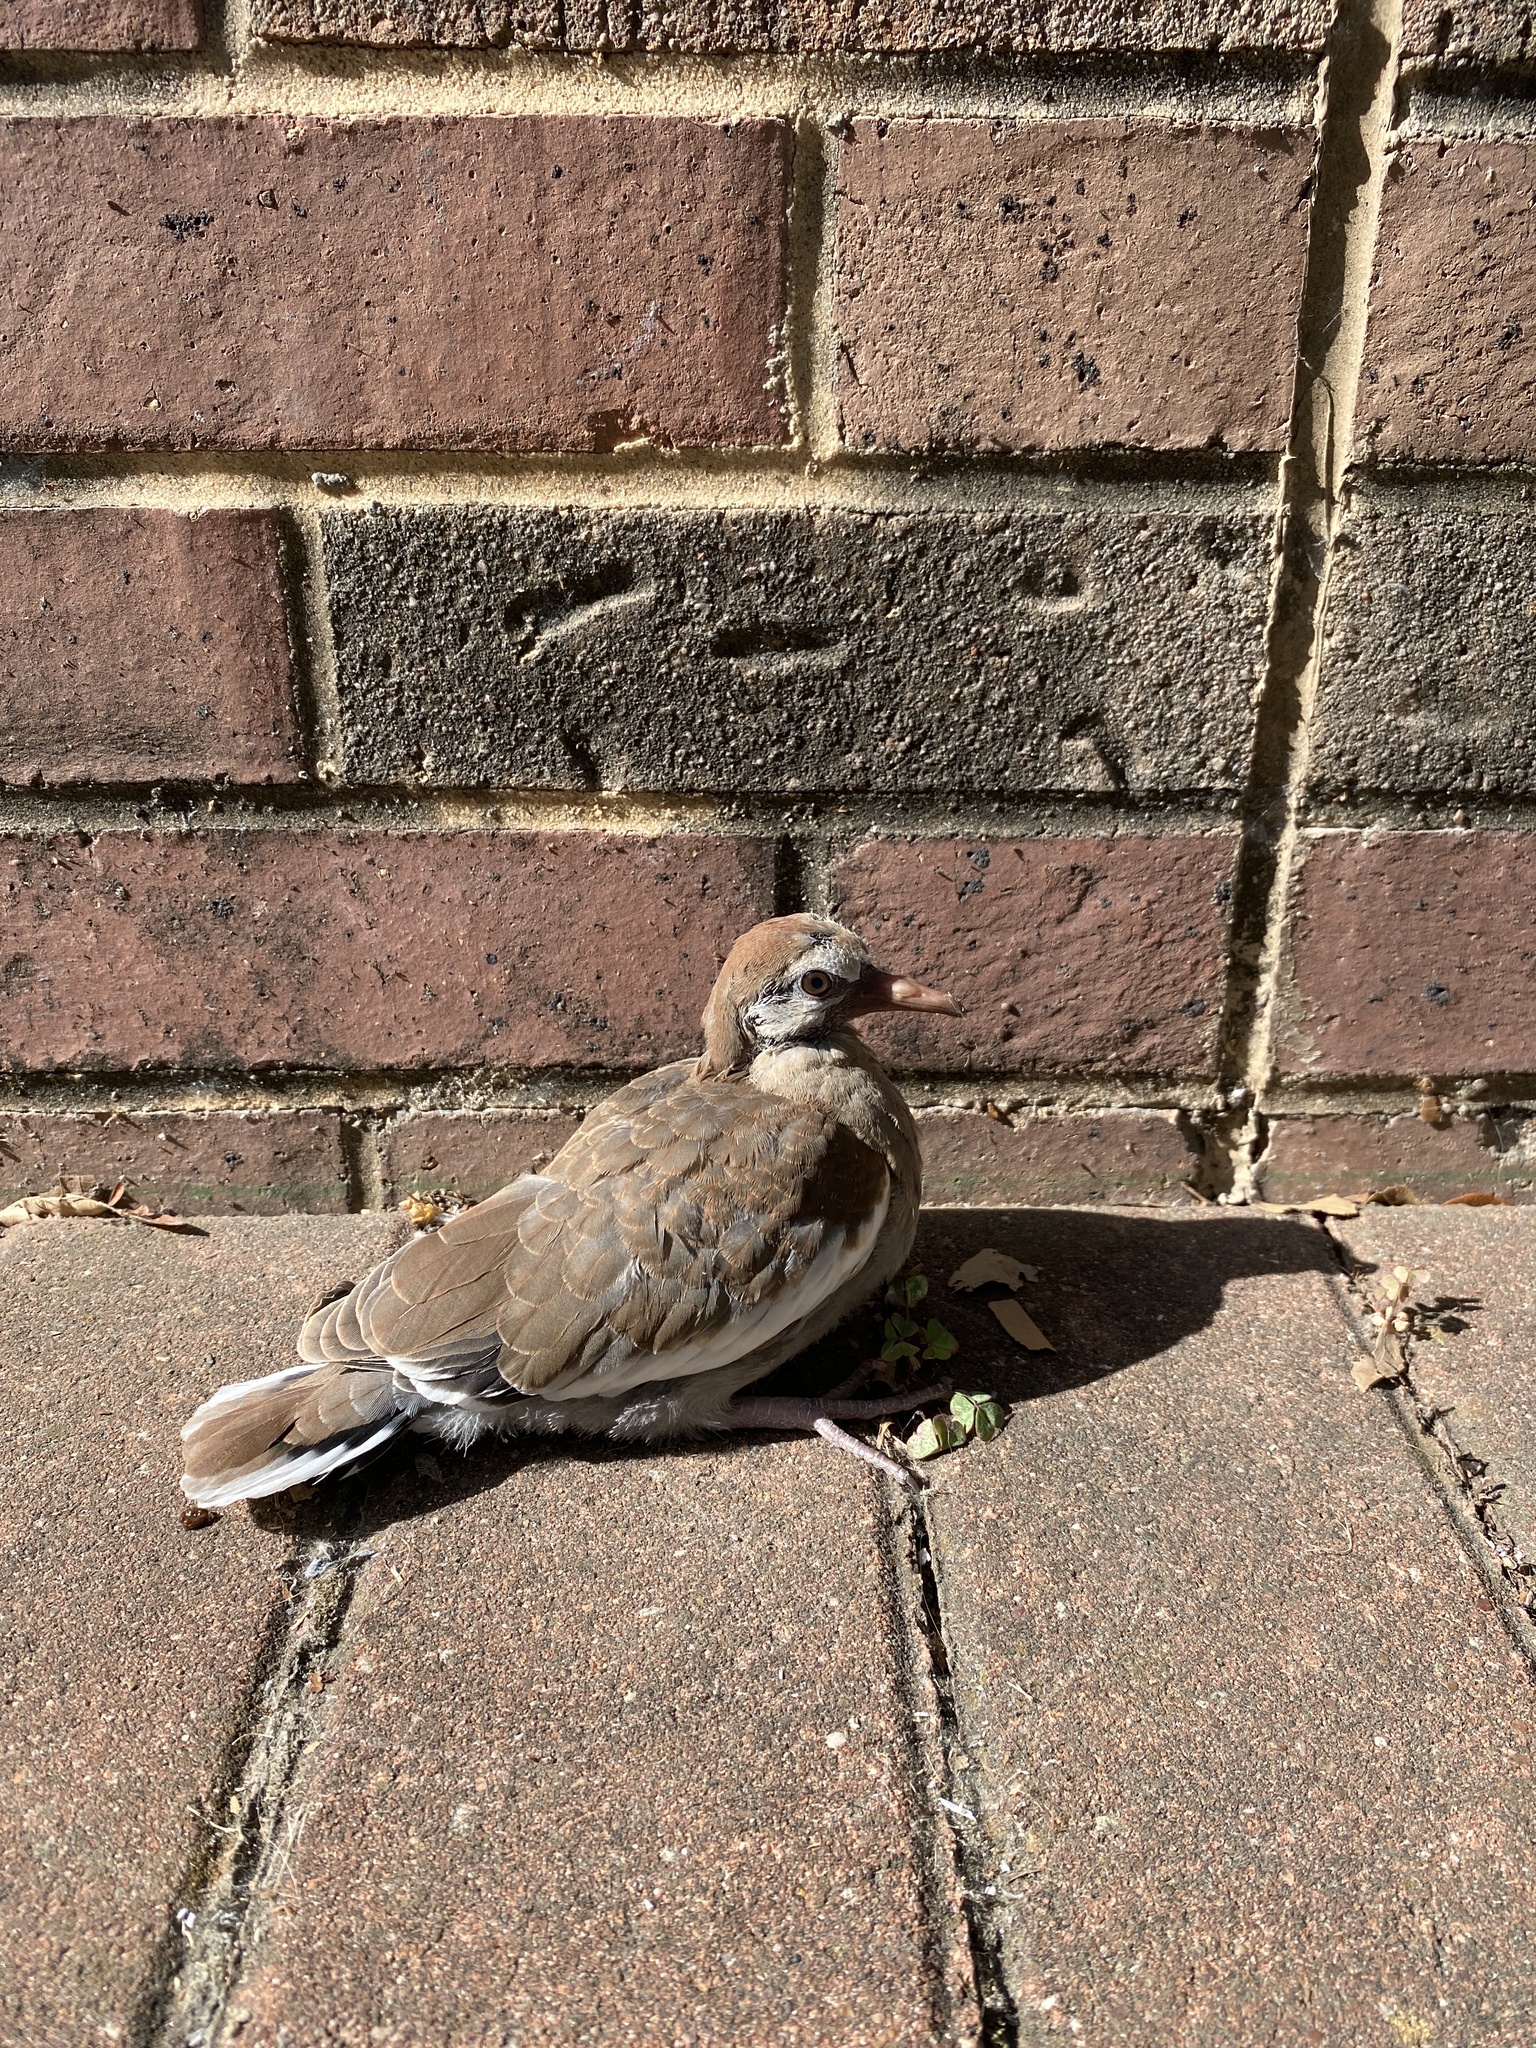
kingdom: Animalia
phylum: Chordata
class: Aves
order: Columbiformes
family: Columbidae
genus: Zenaida
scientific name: Zenaida asiatica
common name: White-winged dove
